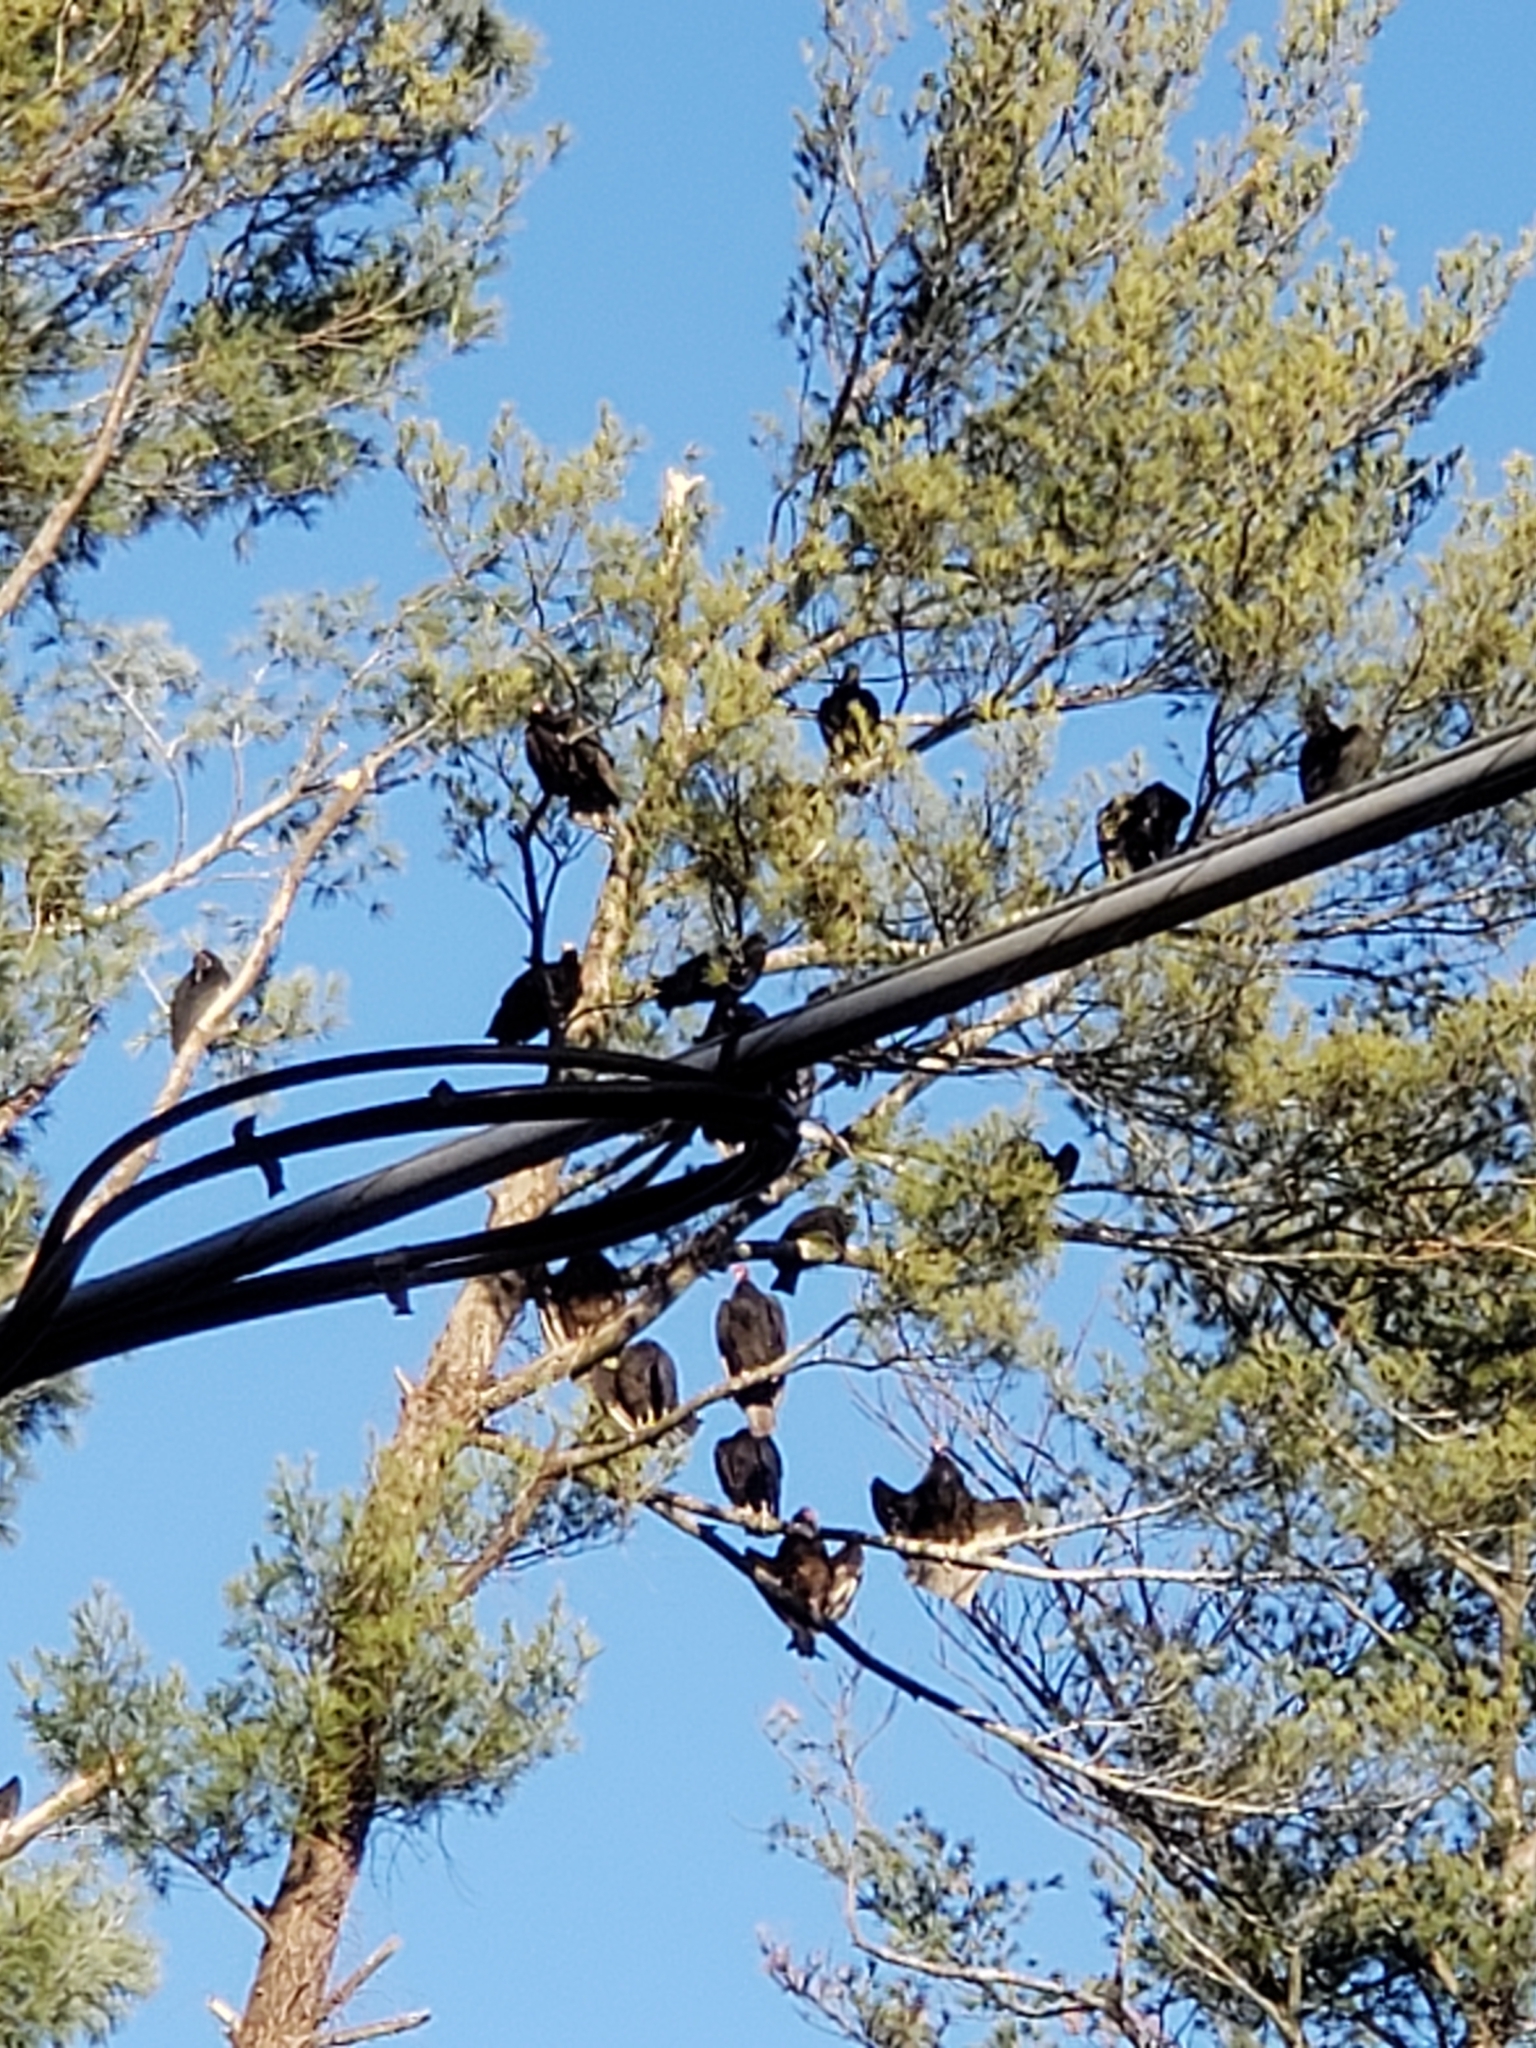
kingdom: Animalia
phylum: Chordata
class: Aves
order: Accipitriformes
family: Cathartidae
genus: Cathartes
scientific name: Cathartes aura
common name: Turkey vulture
